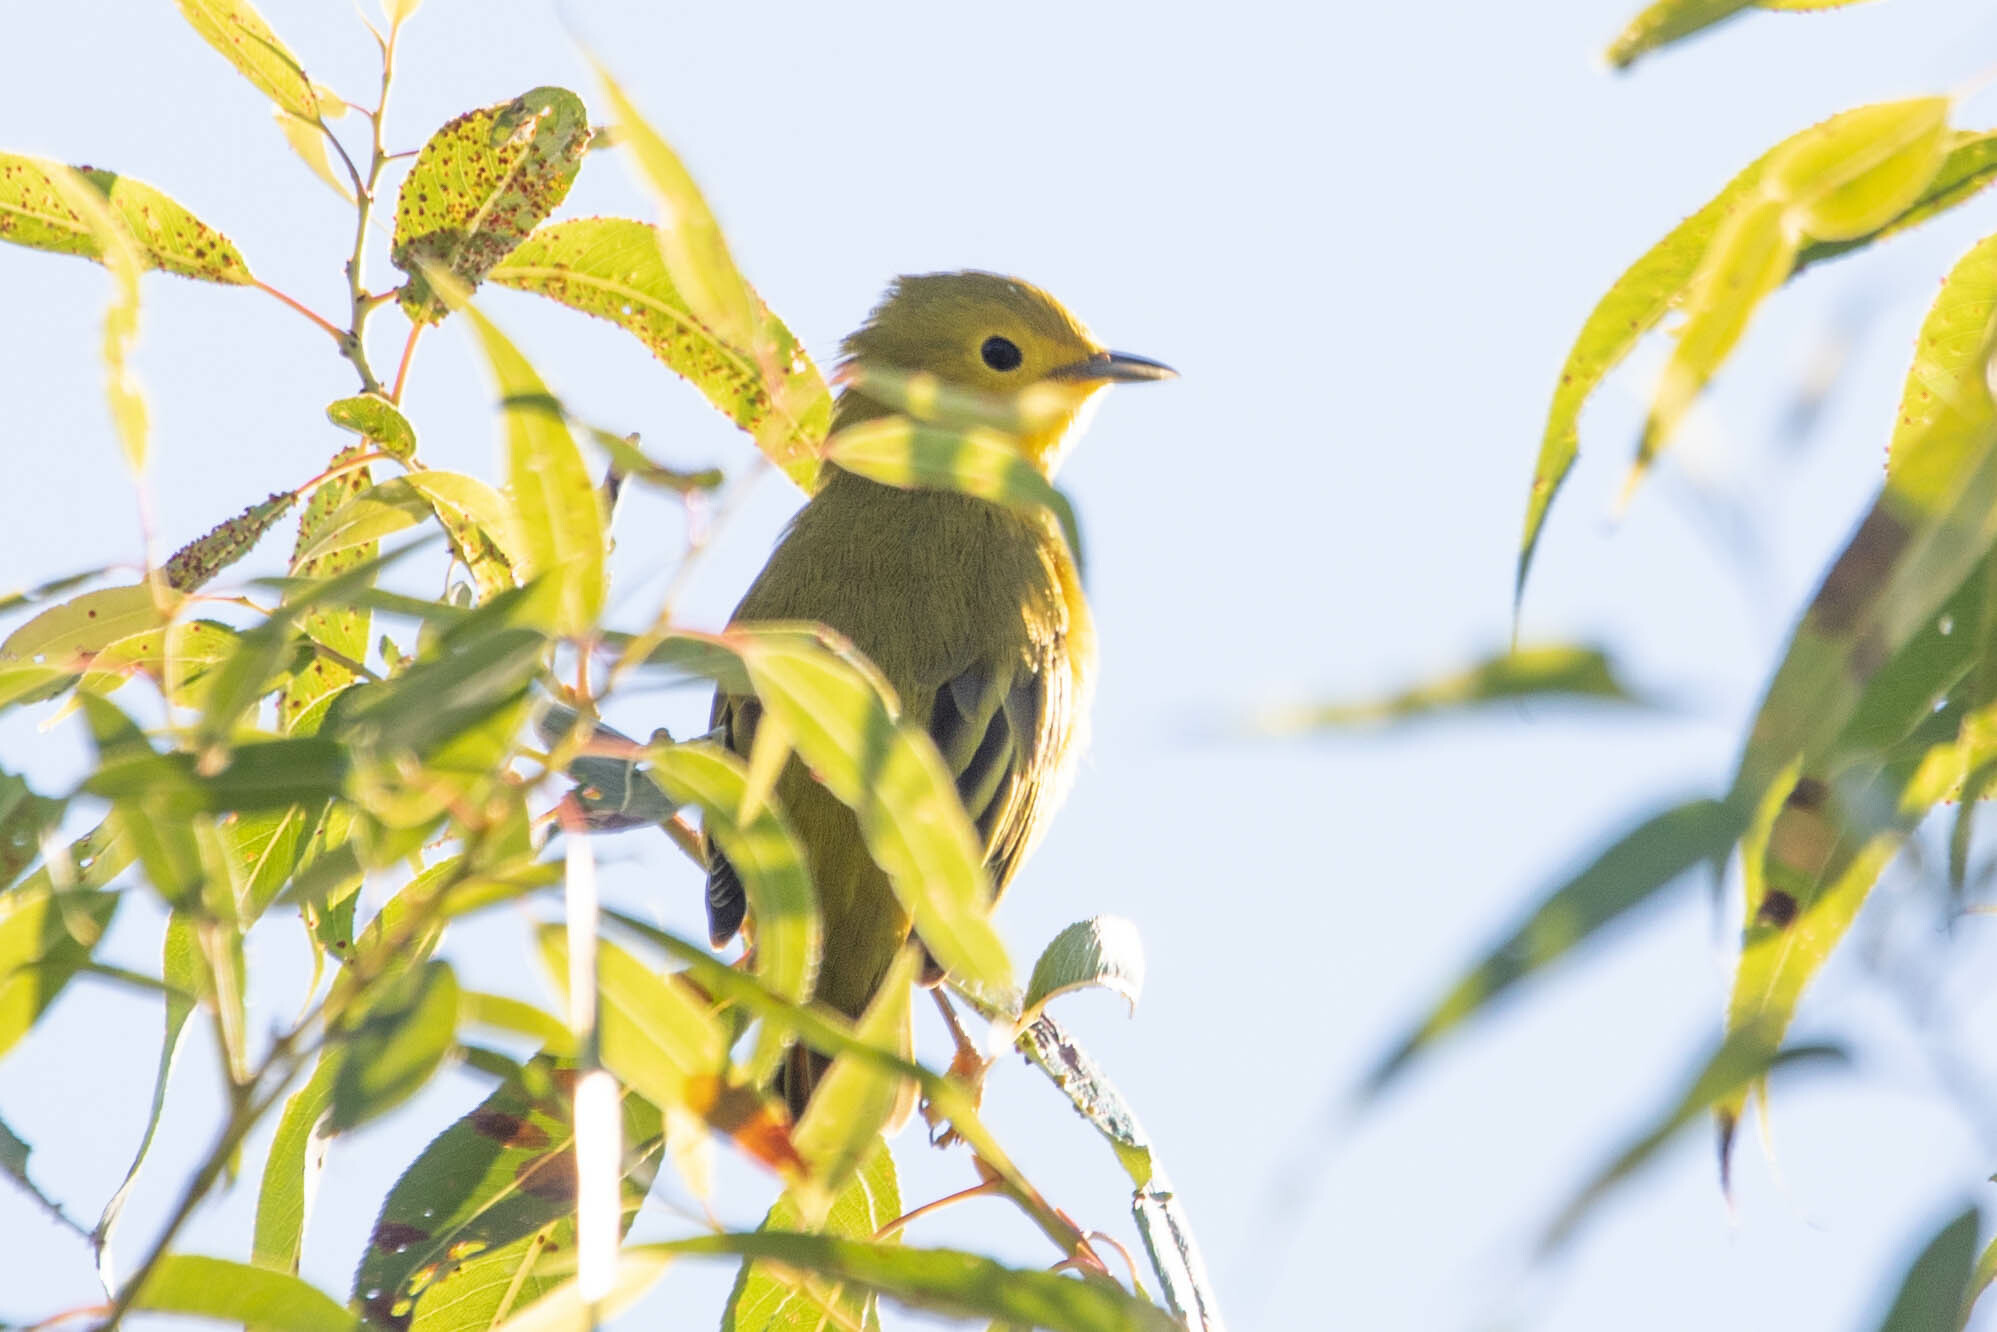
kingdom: Animalia
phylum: Chordata
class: Aves
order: Passeriformes
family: Parulidae
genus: Setophaga
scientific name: Setophaga petechia
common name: Yellow warbler
